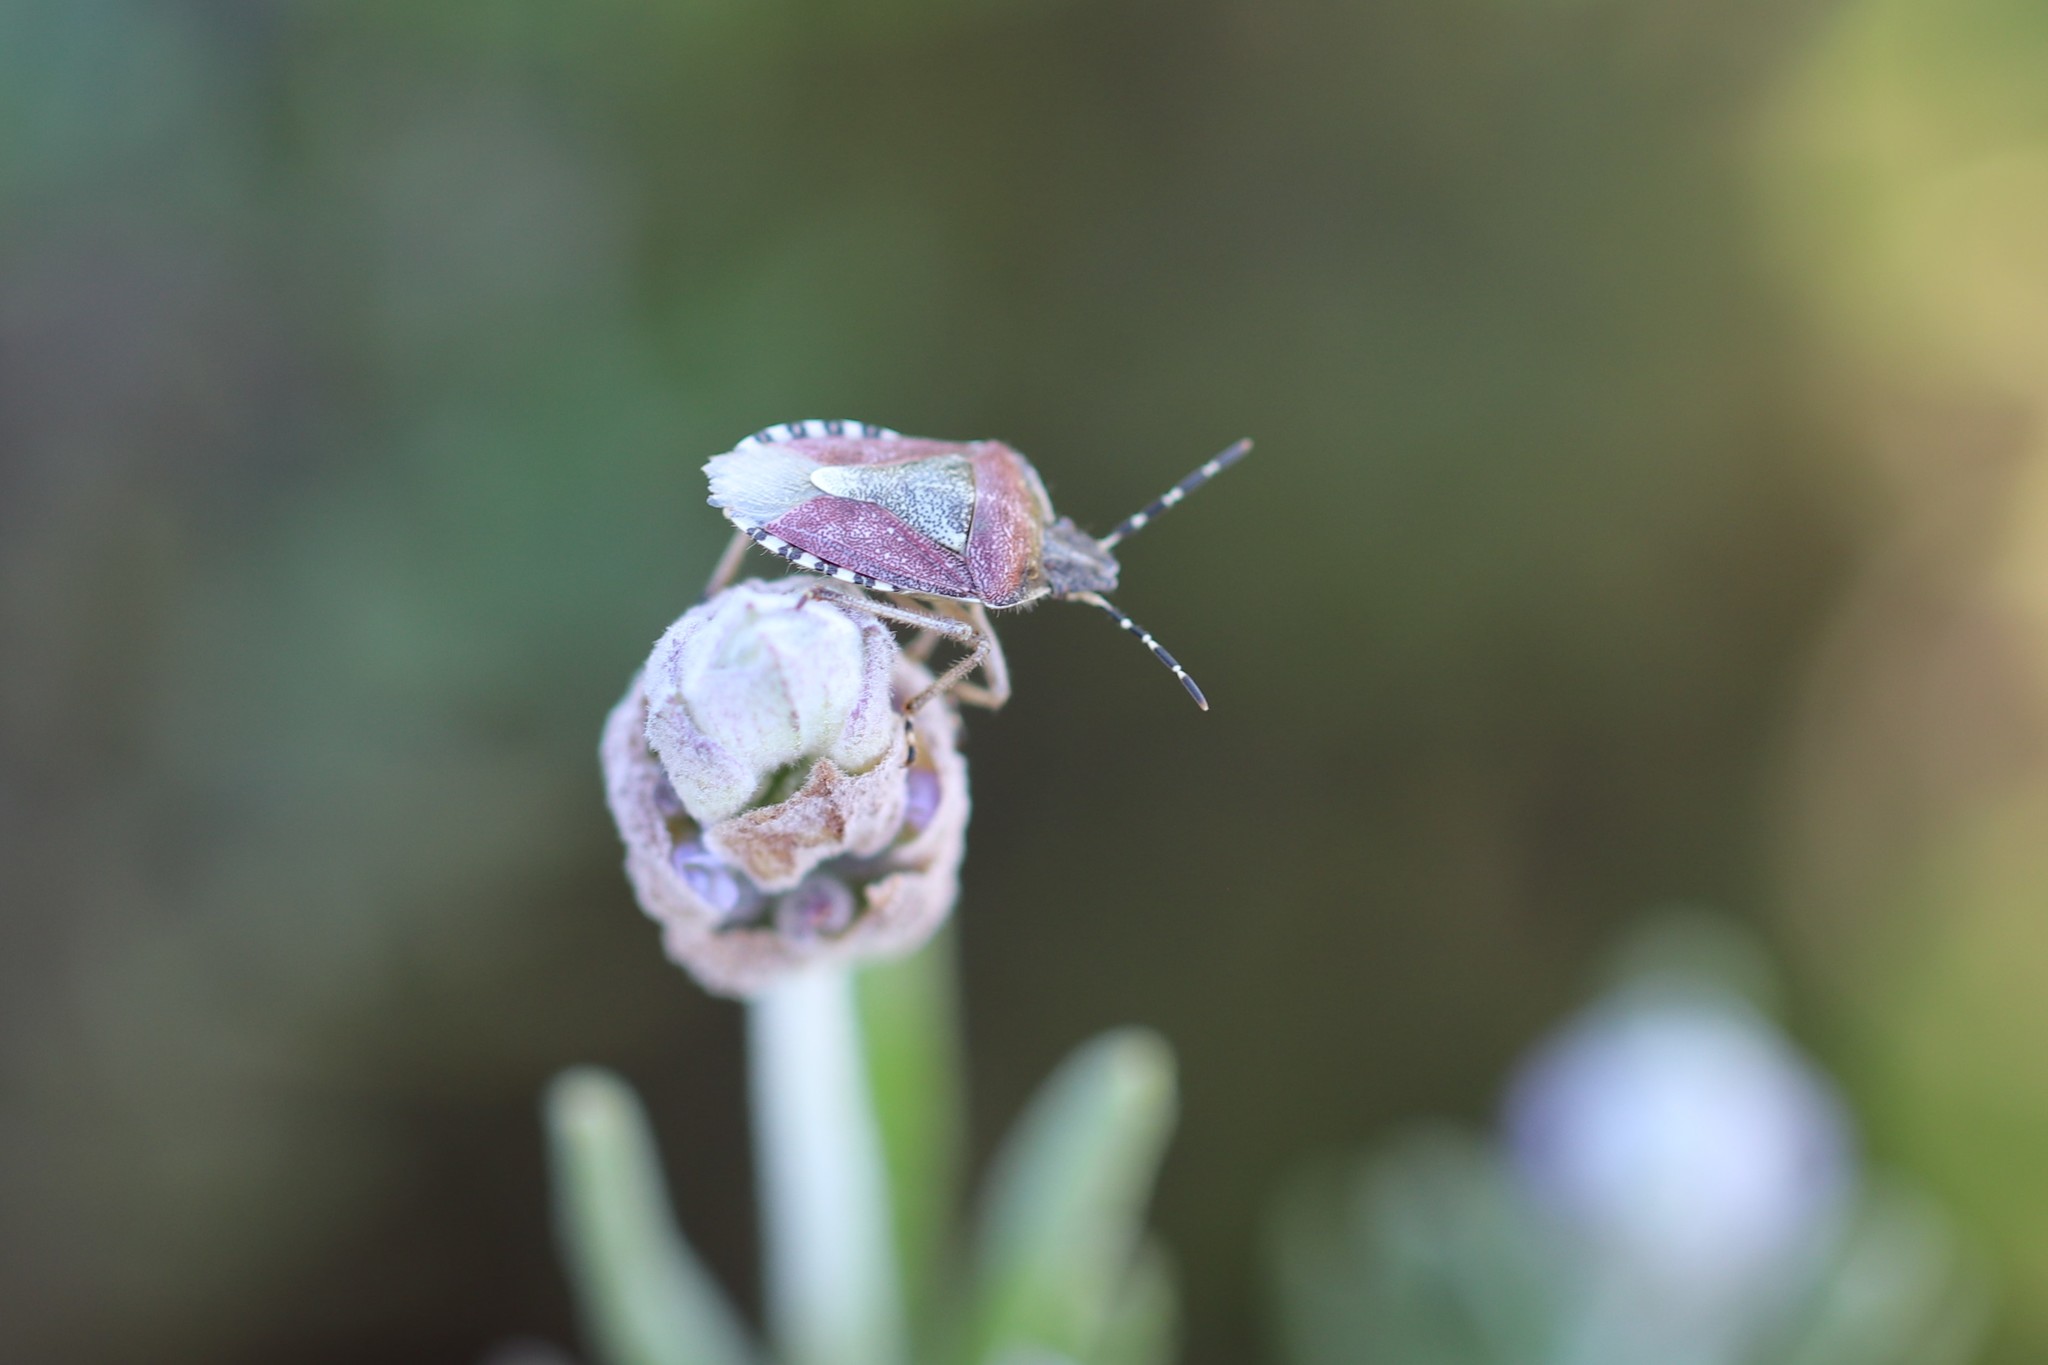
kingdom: Animalia
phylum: Arthropoda
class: Insecta
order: Hemiptera
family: Pentatomidae
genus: Dolycoris
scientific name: Dolycoris baccarum
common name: Sloe bug
